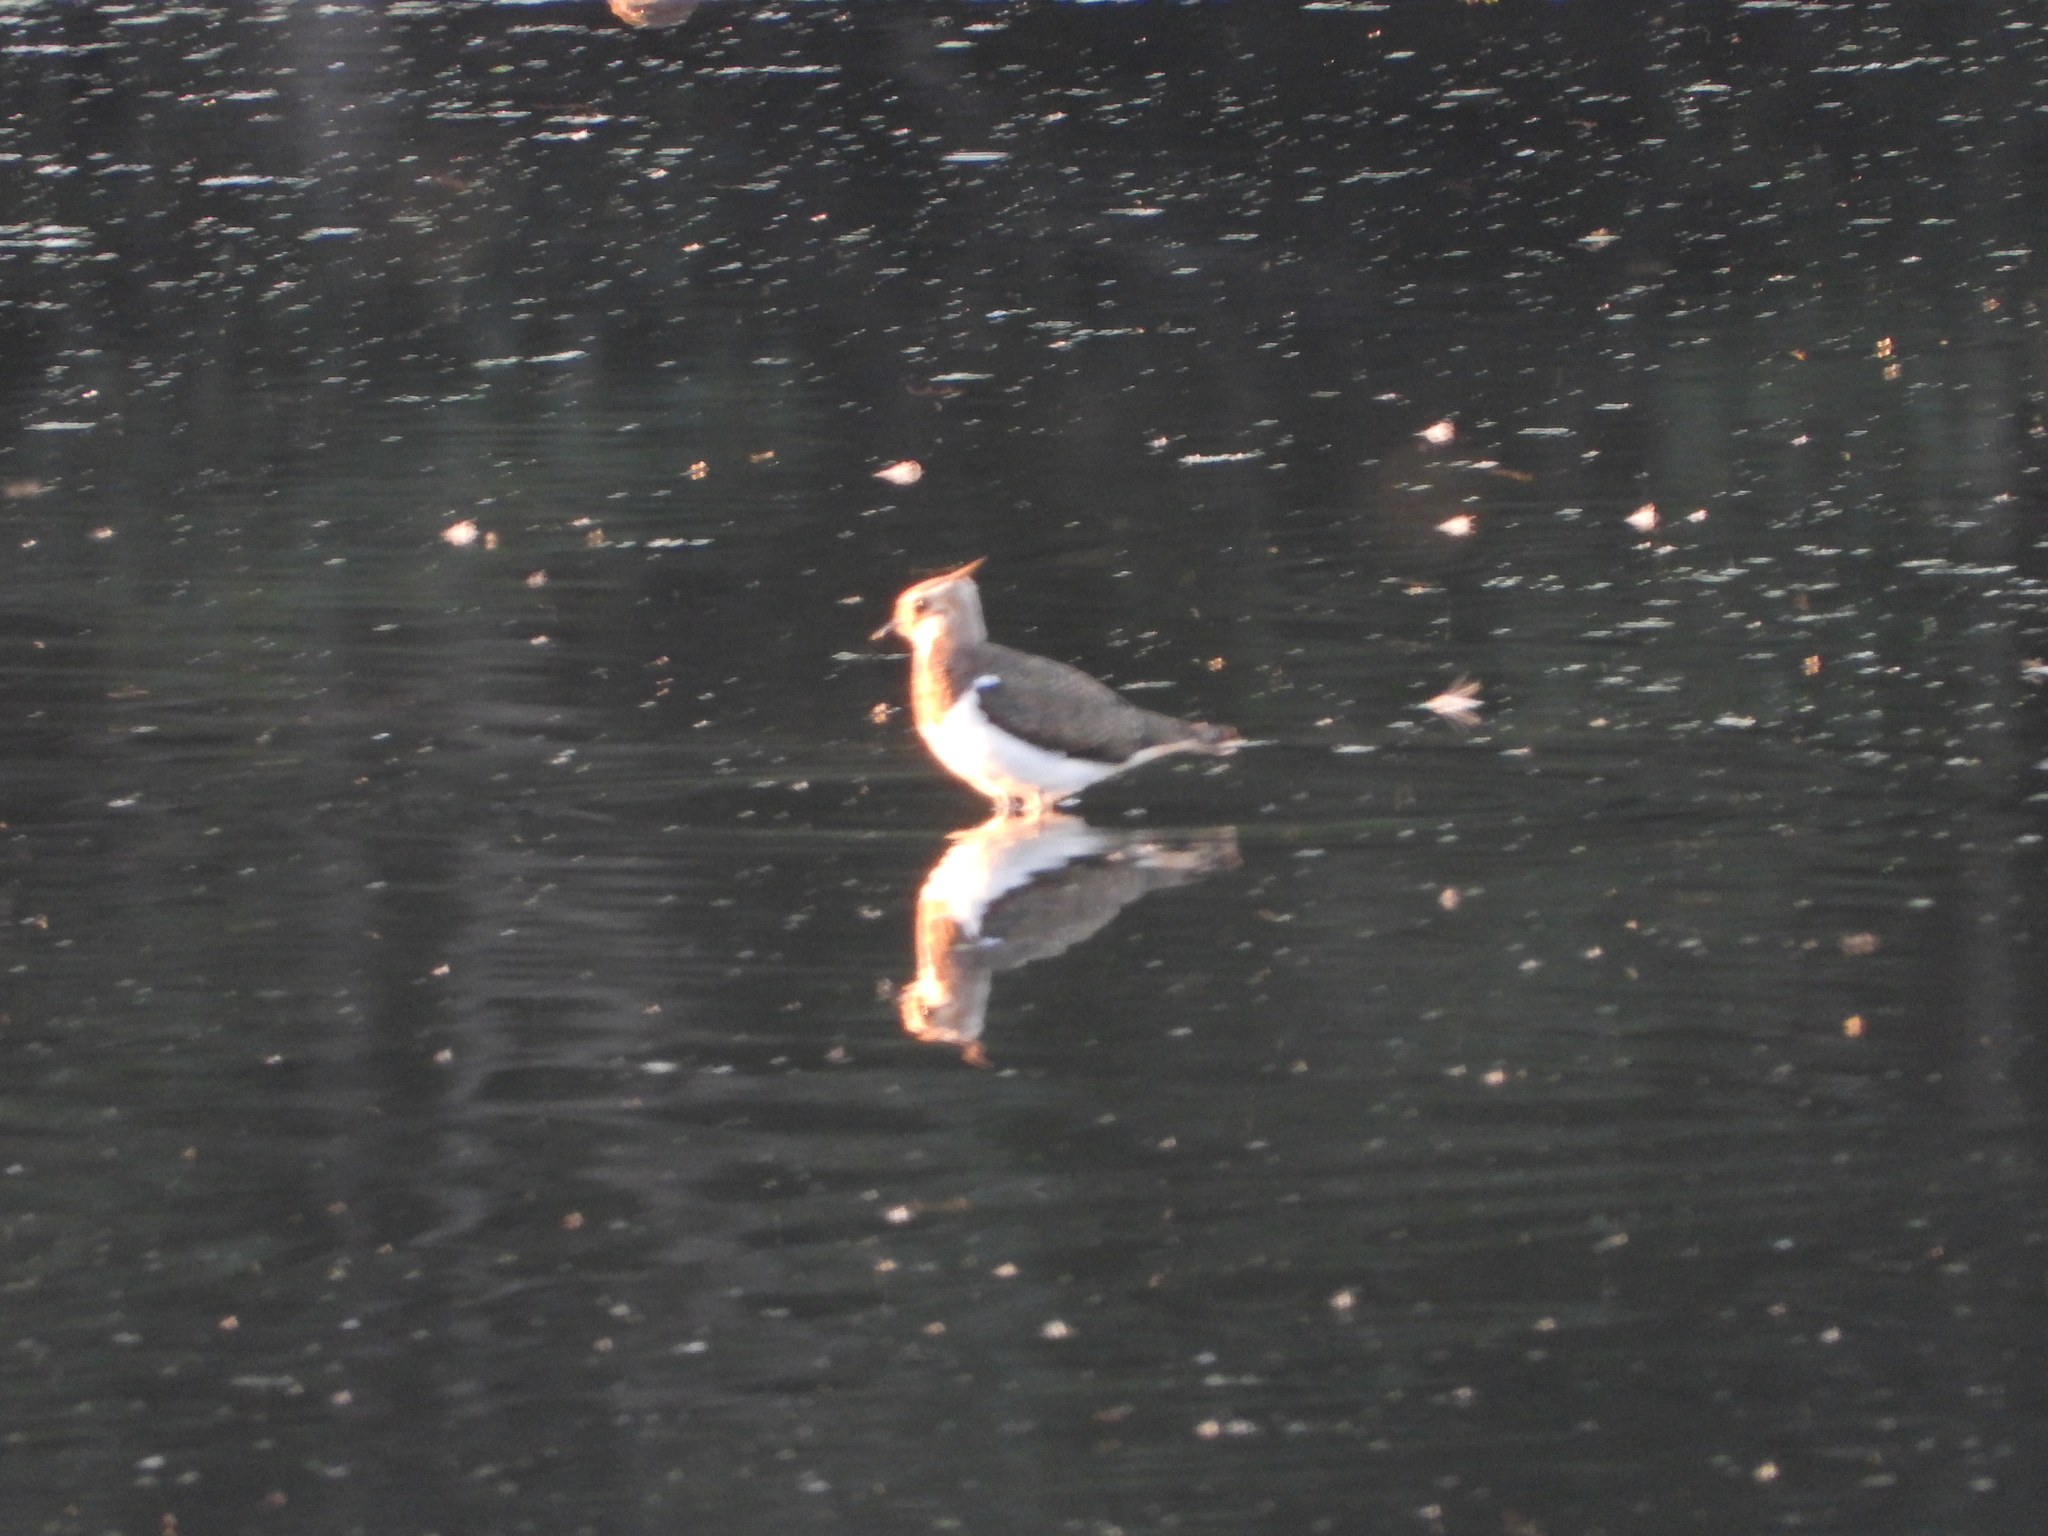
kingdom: Animalia
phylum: Chordata
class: Aves
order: Charadriiformes
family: Charadriidae
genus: Vanellus
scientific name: Vanellus vanellus
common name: Northern lapwing
